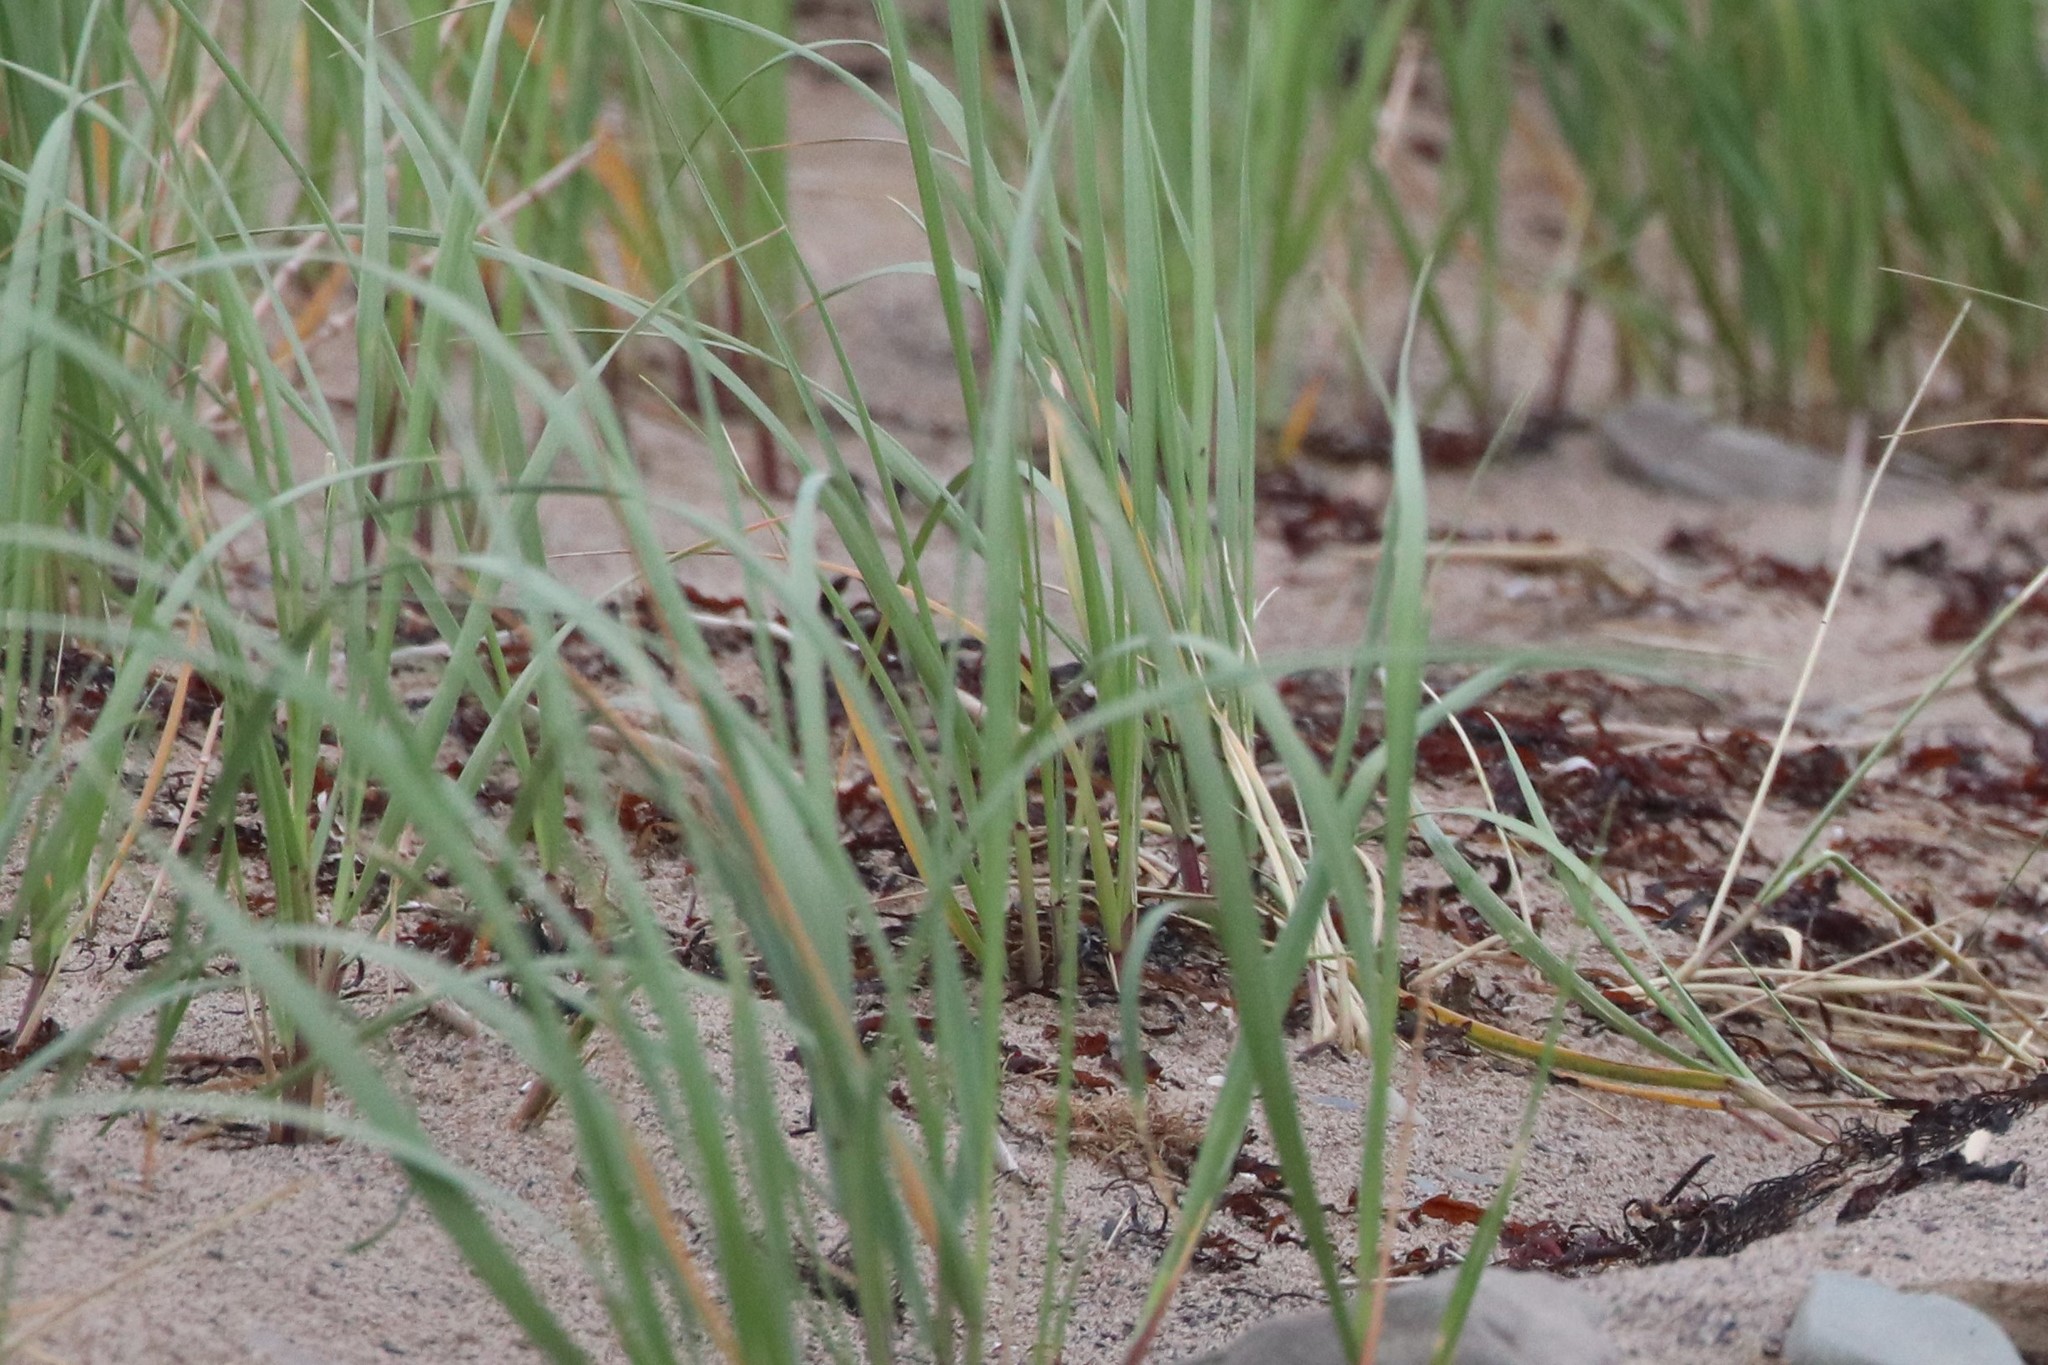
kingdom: Plantae
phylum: Tracheophyta
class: Liliopsida
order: Poales
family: Poaceae
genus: Leymus
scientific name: Leymus mollis
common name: American dune grass
